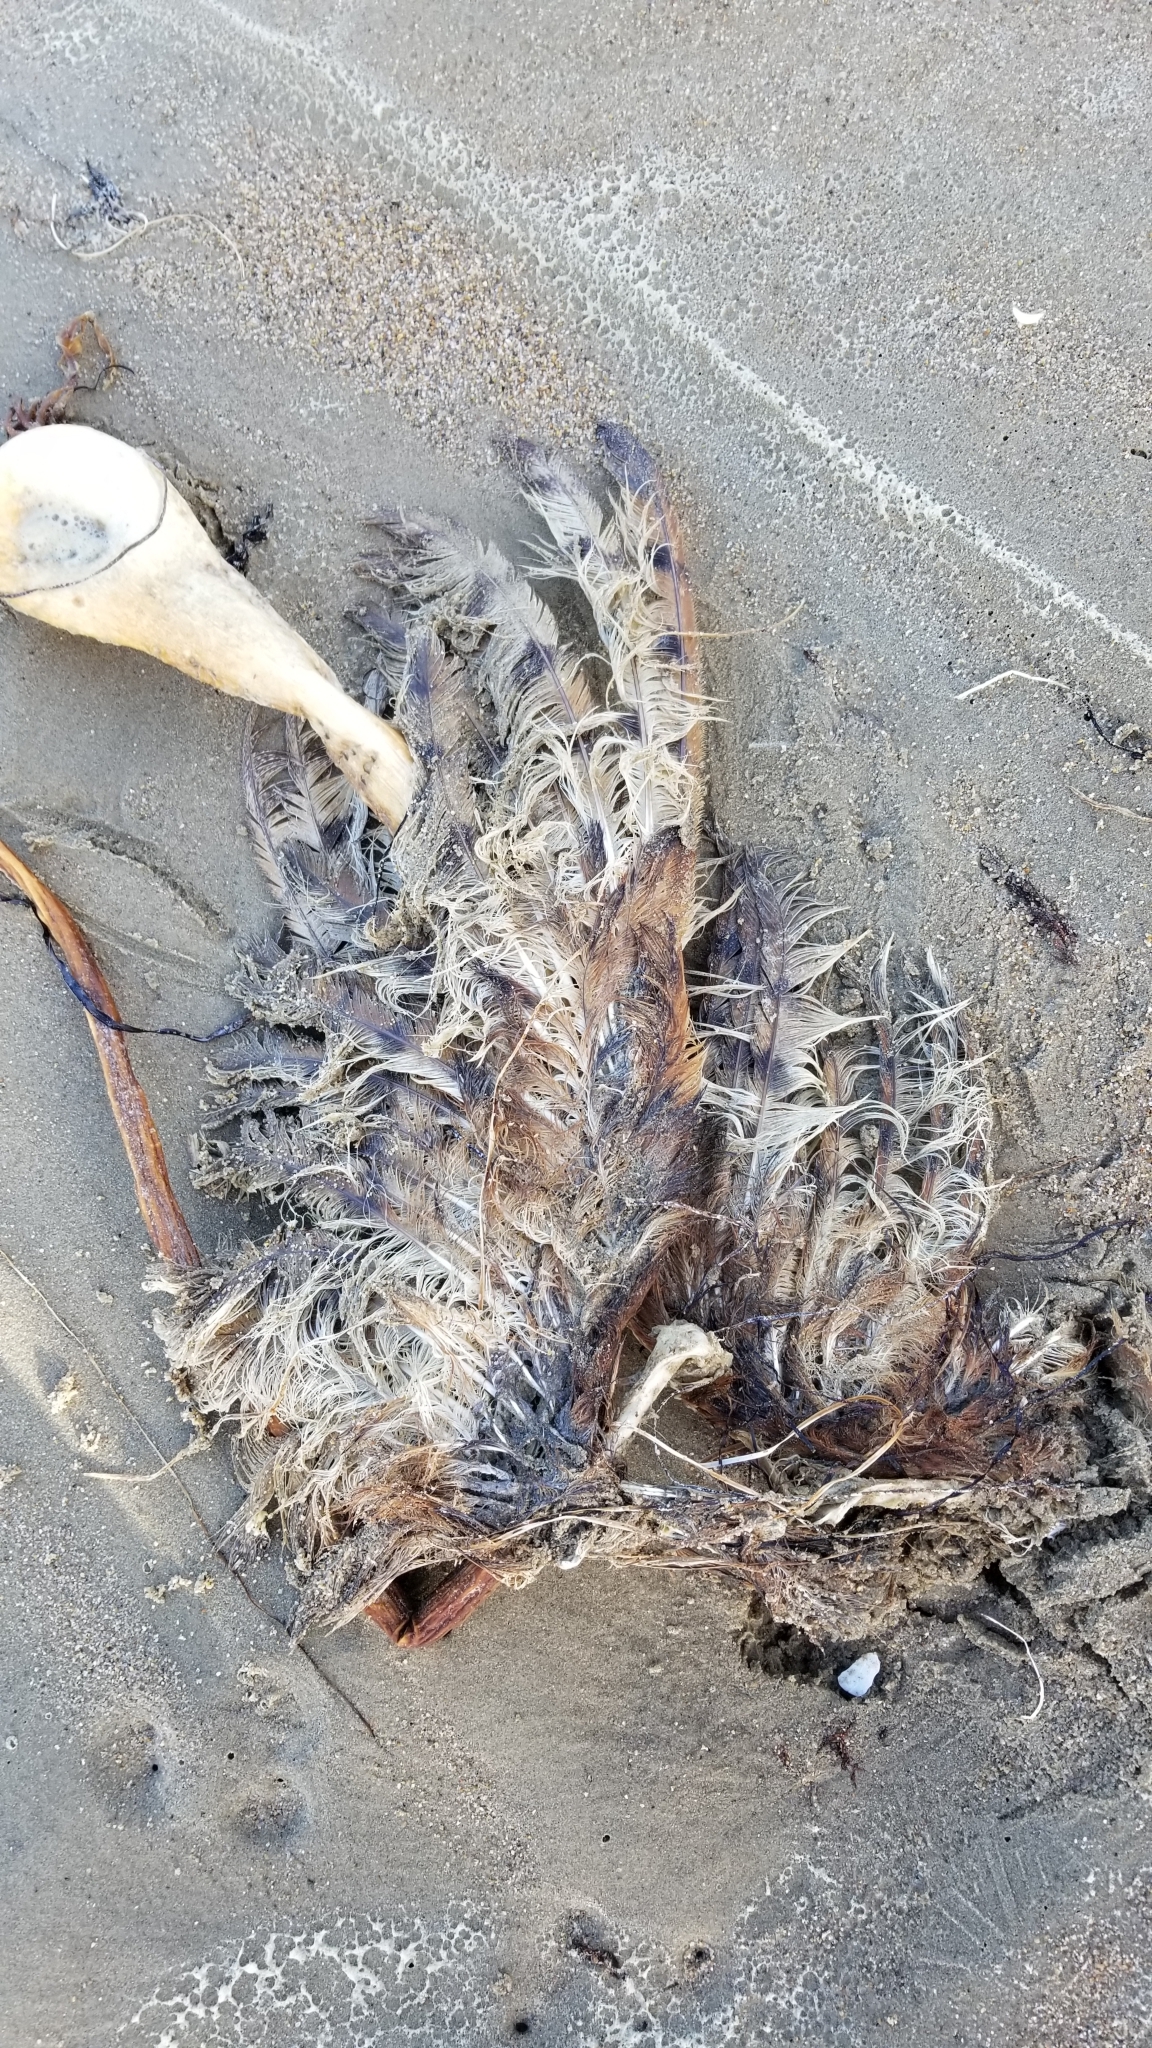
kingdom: Animalia
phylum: Chordata
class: Aves
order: Strigiformes
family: Tytonidae
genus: Tyto
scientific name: Tyto alba
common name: Barn owl
